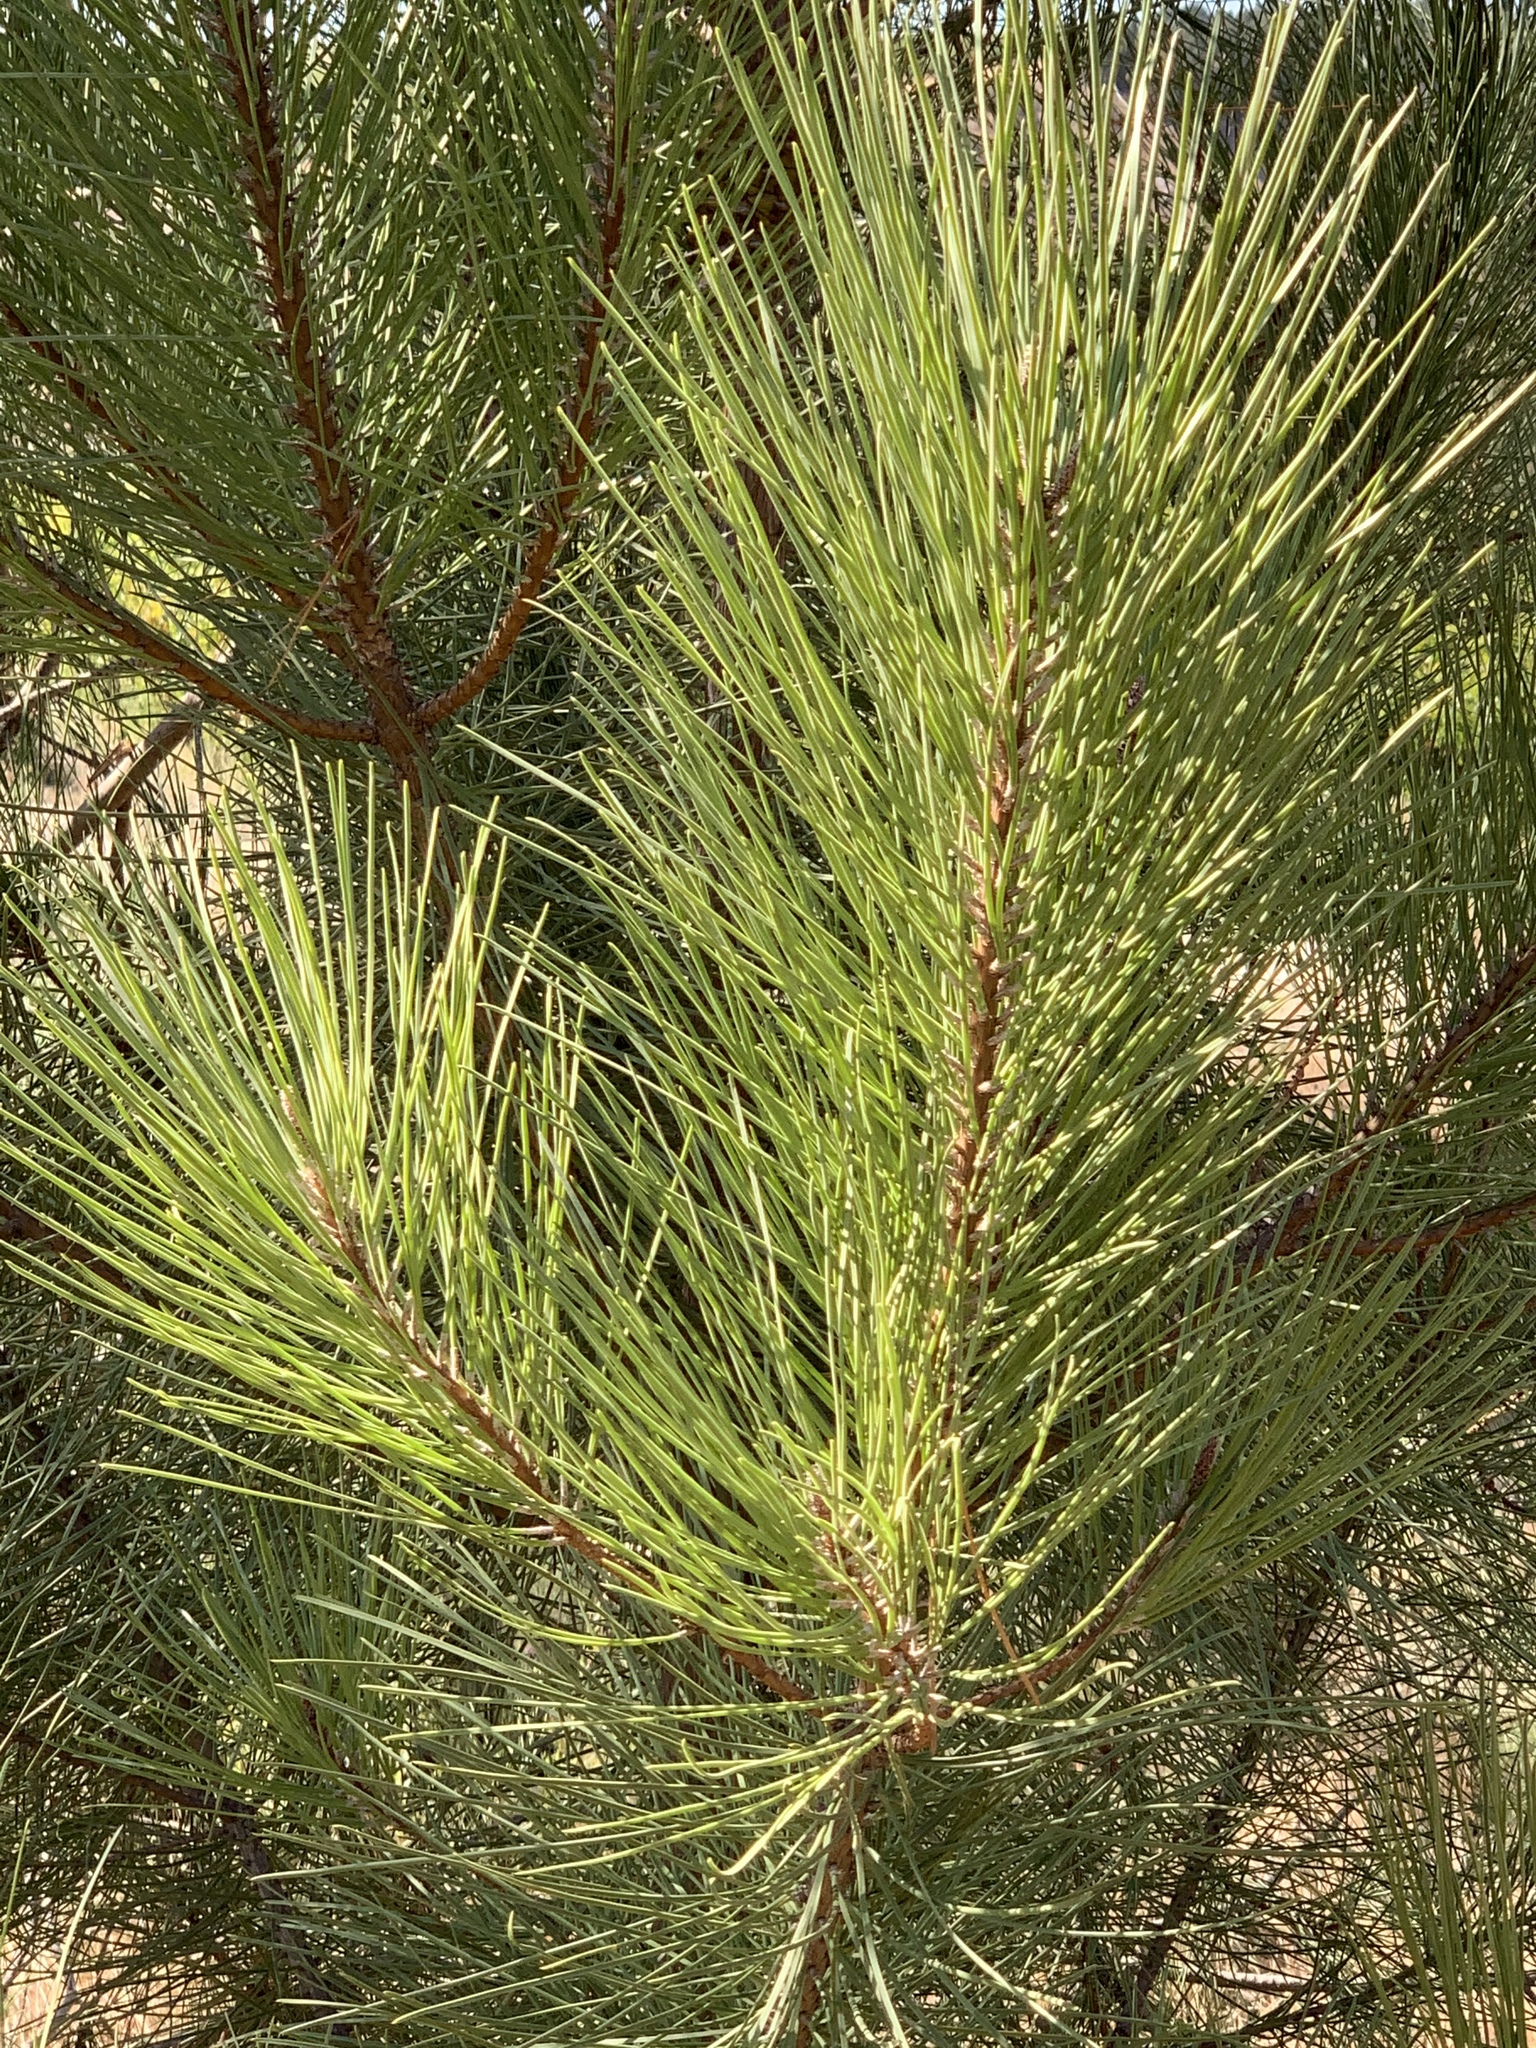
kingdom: Plantae
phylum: Tracheophyta
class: Pinopsida
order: Pinales
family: Pinaceae
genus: Pinus
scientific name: Pinus pinaster
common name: Maritime pine
